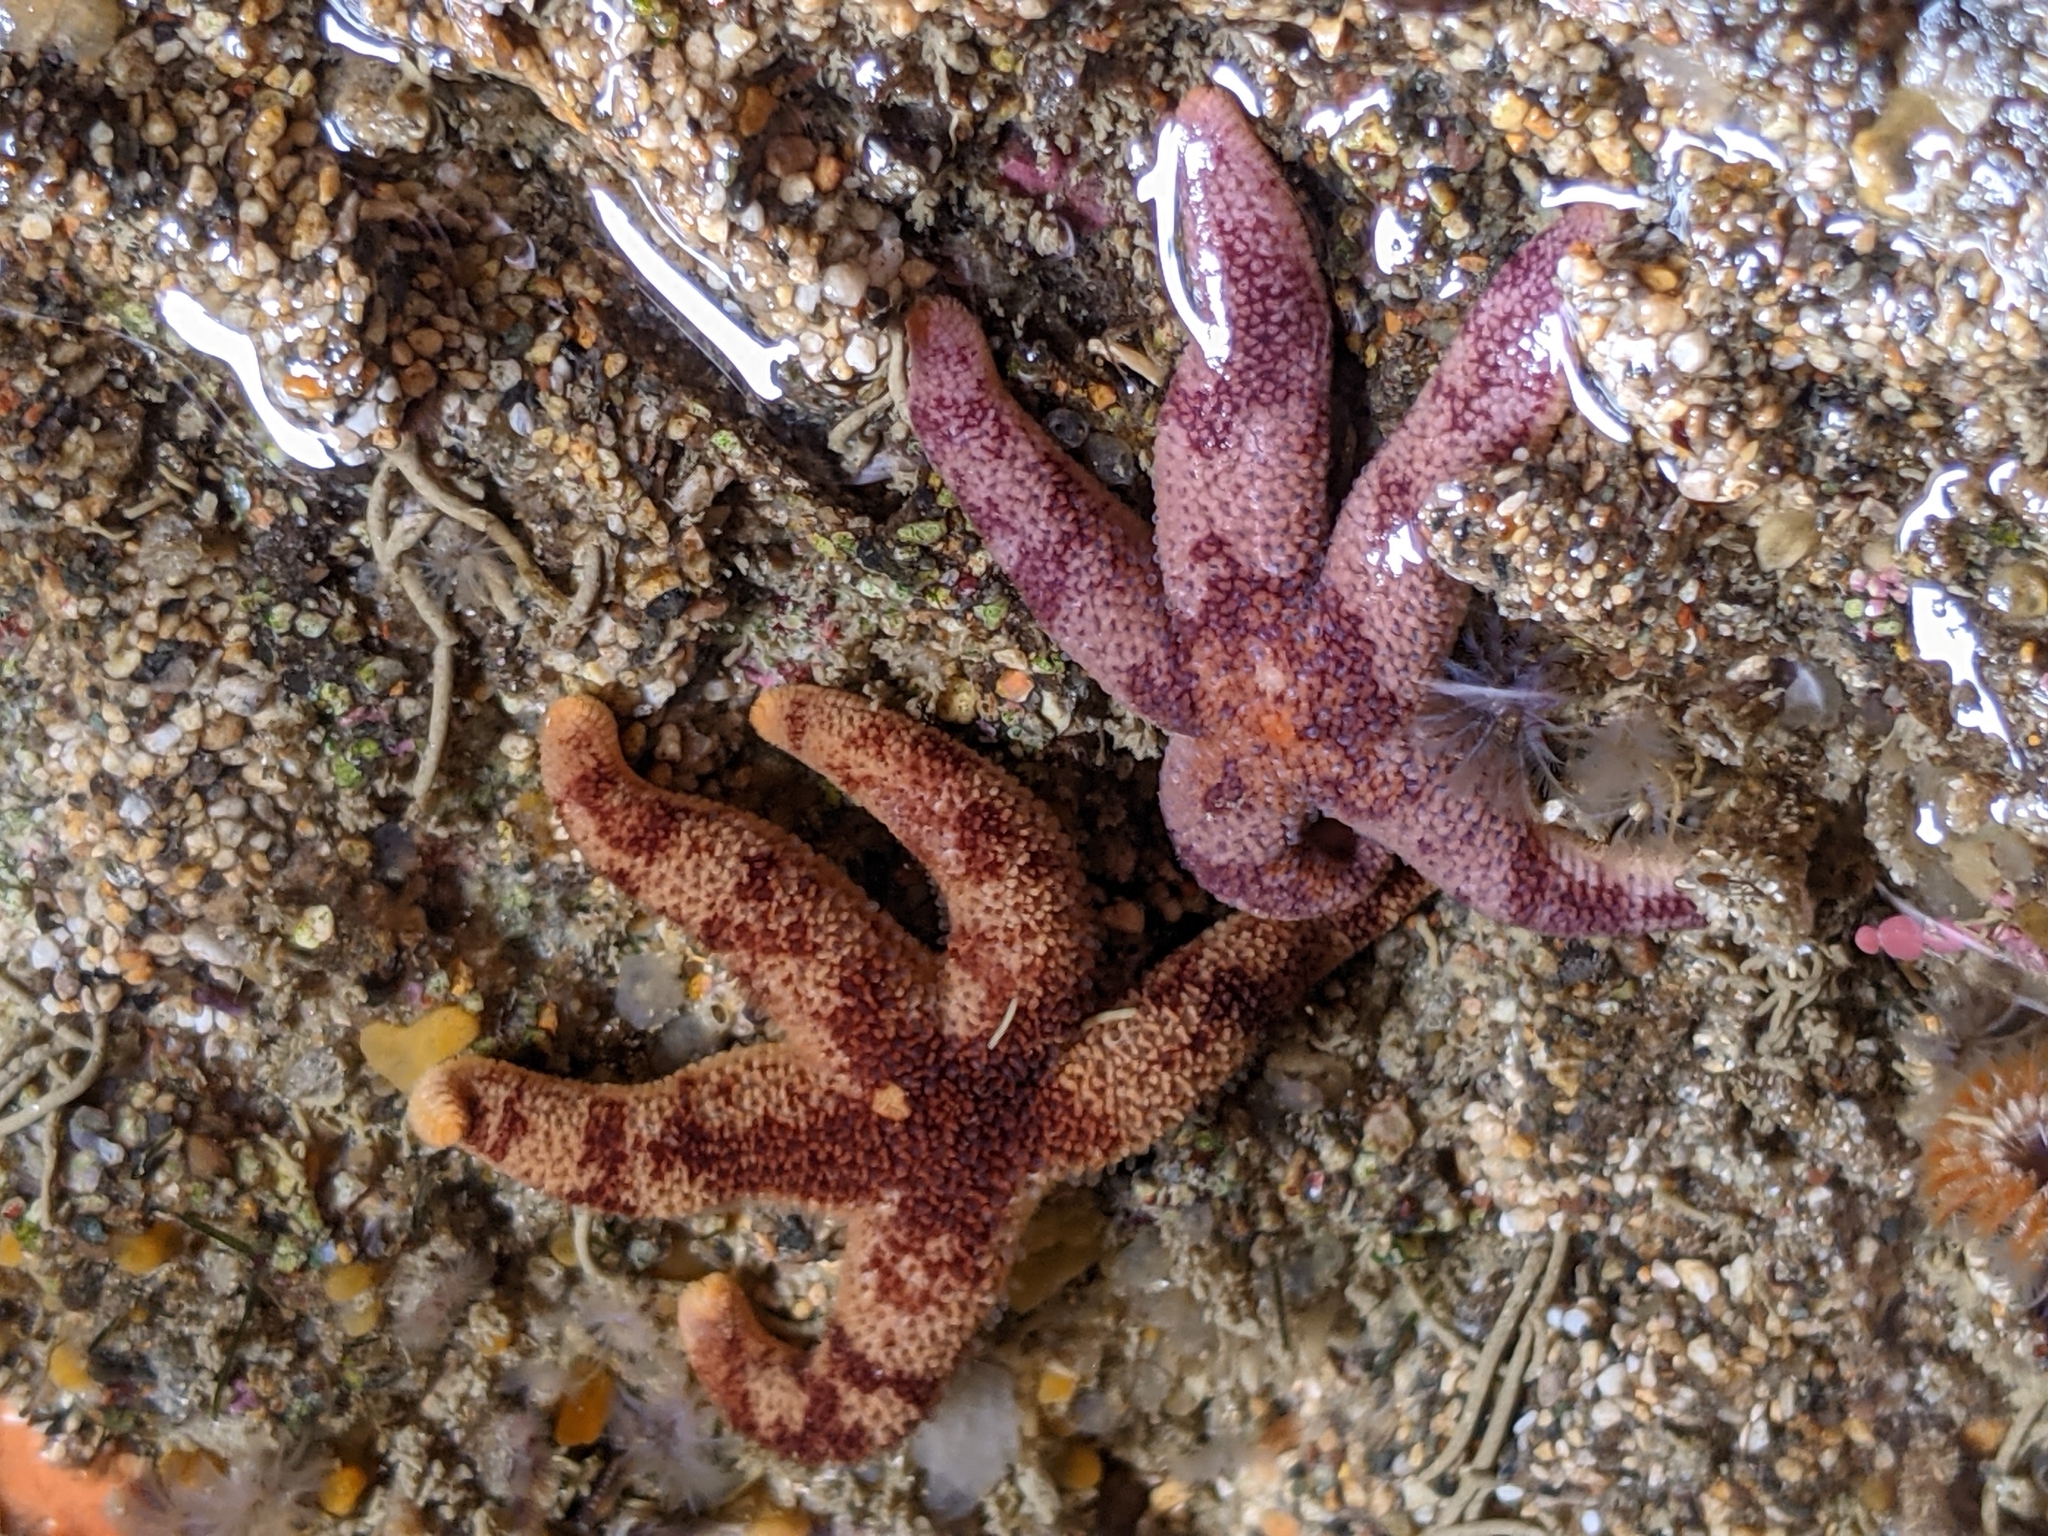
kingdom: Animalia
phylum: Echinodermata
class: Asteroidea
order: Spinulosida
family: Echinasteridae
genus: Henricia
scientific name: Henricia pumila
